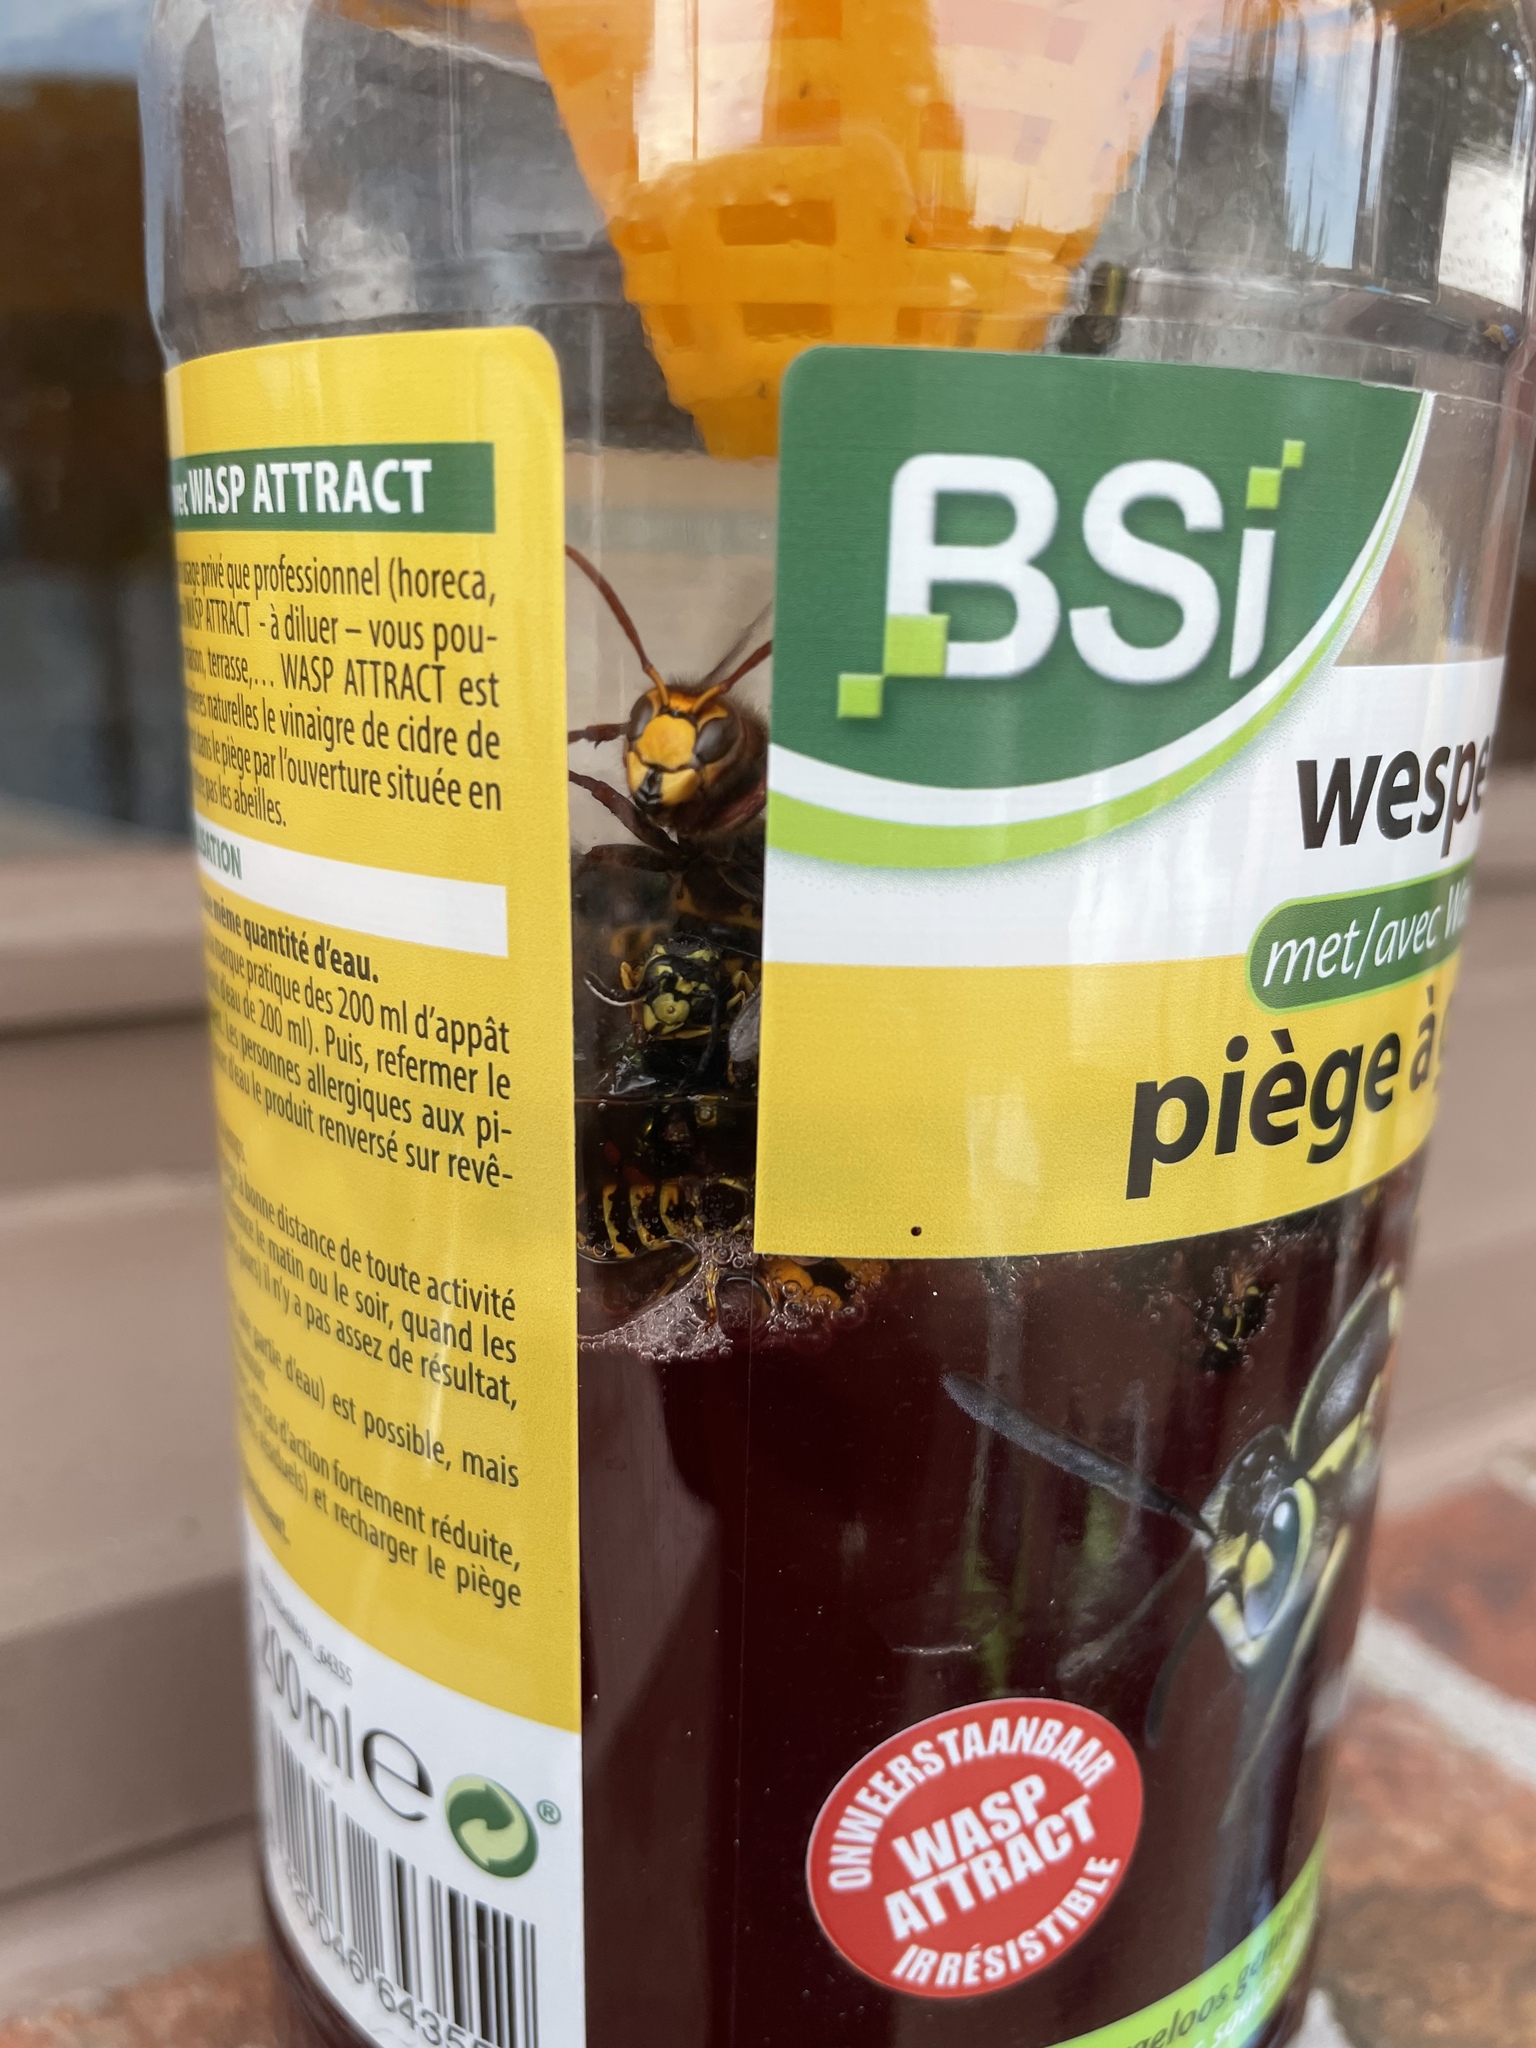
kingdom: Animalia
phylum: Arthropoda
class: Insecta
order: Hymenoptera
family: Vespidae
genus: Vespa
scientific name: Vespa crabro
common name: Hornet
